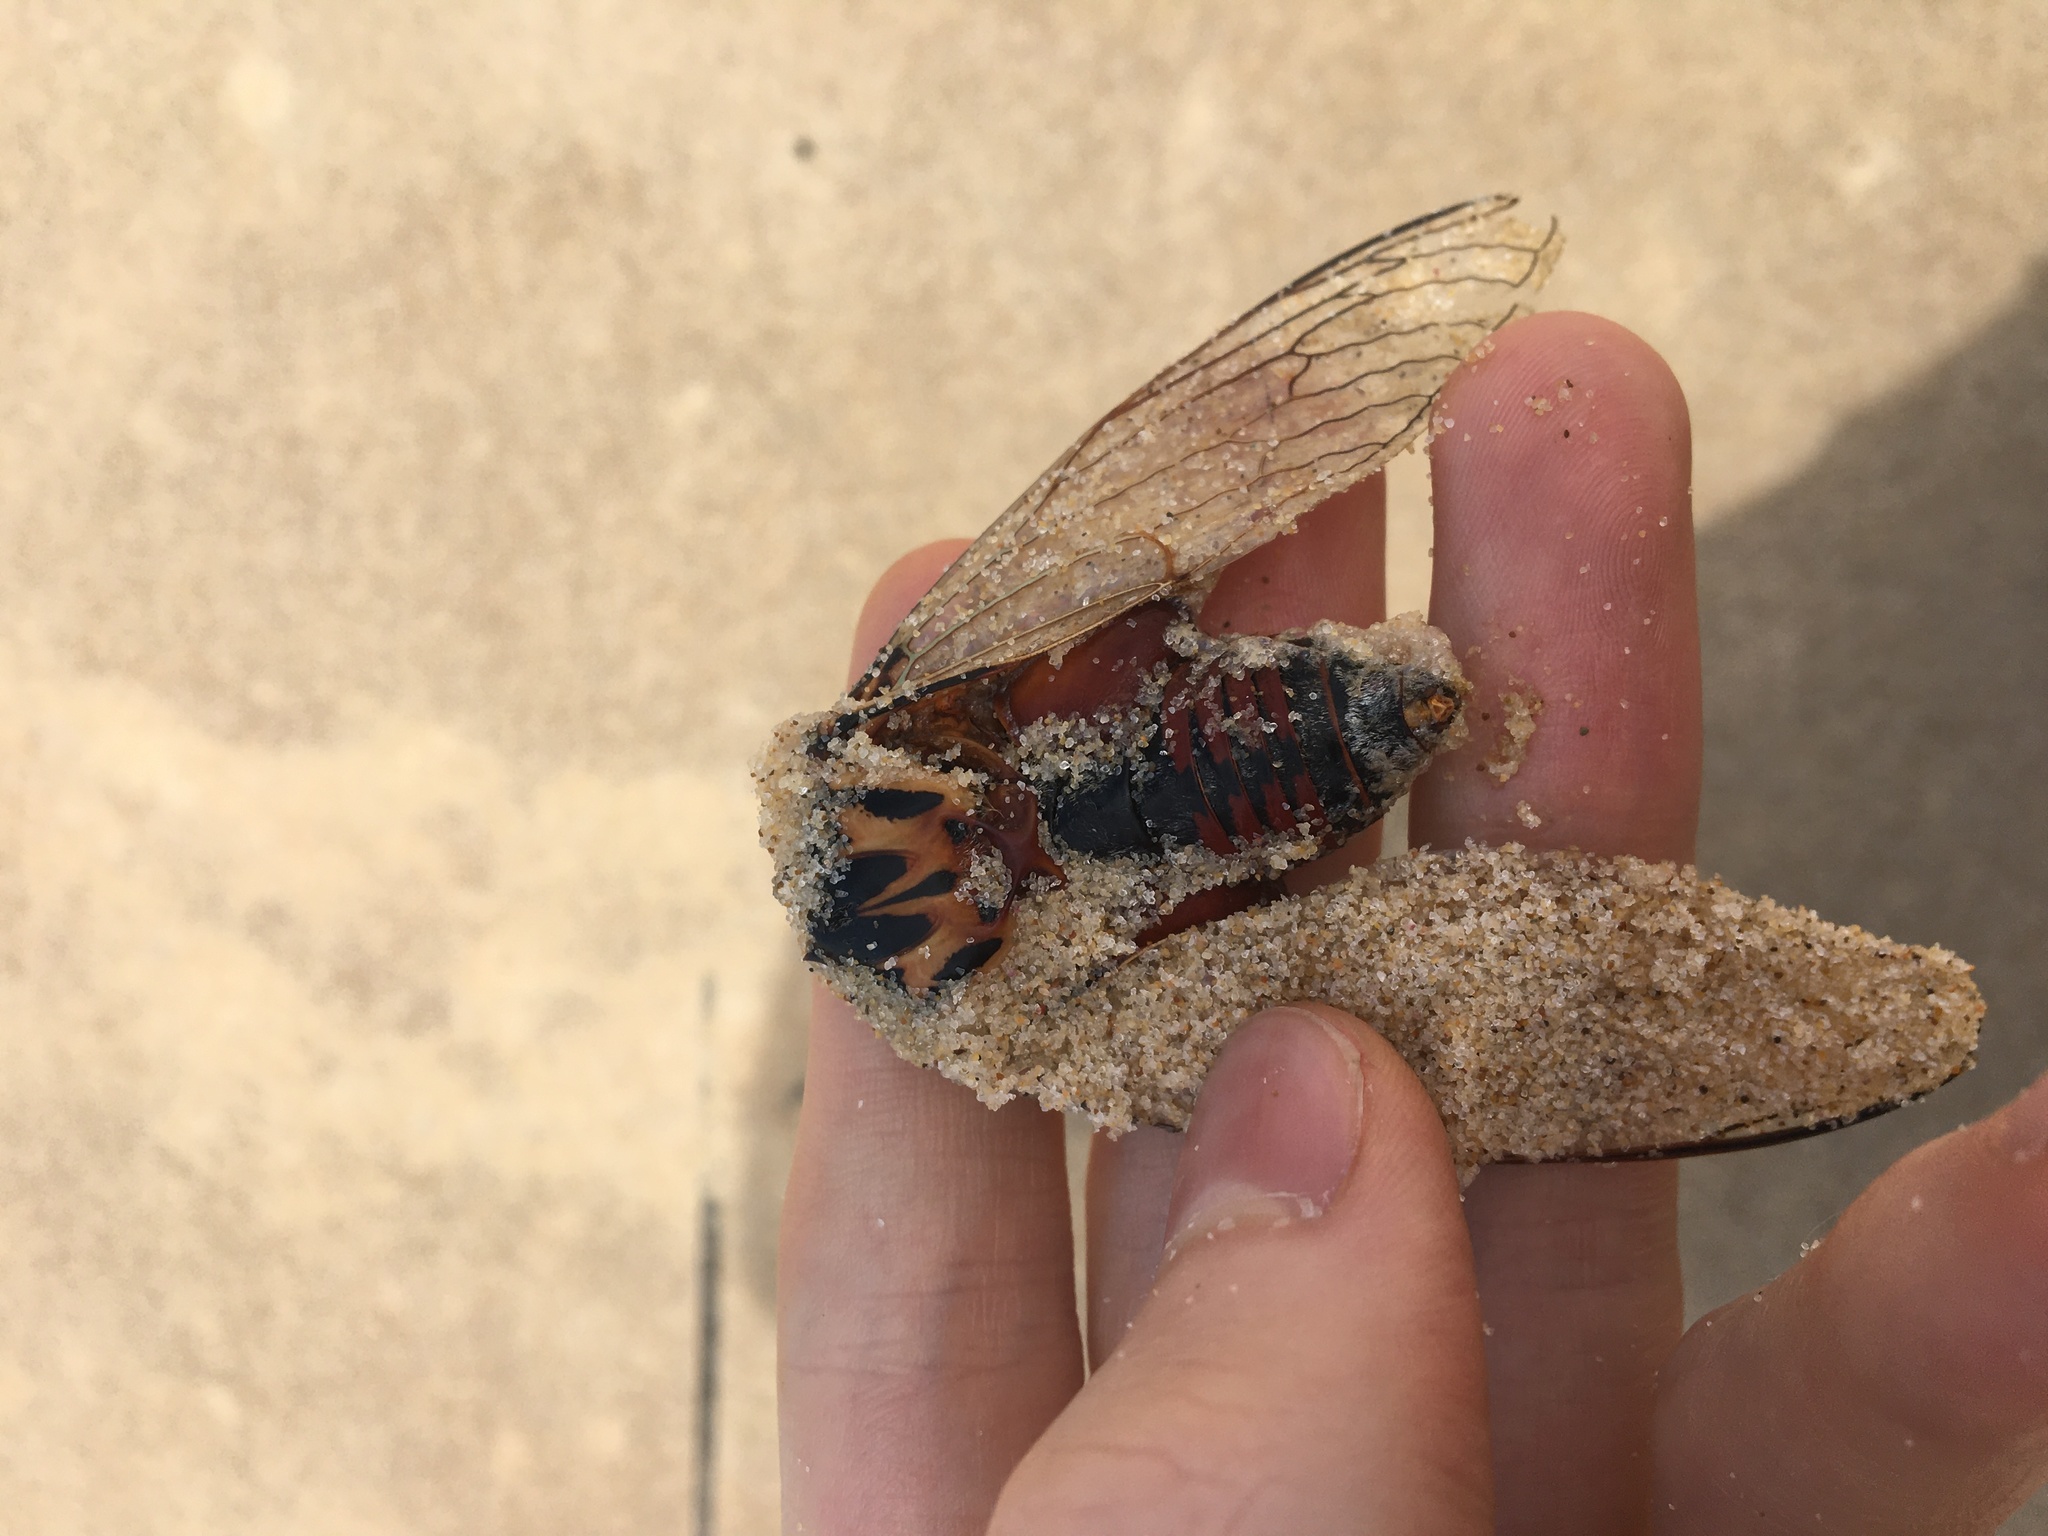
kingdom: Animalia
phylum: Arthropoda
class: Insecta
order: Hemiptera
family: Cicadidae
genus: Thopha
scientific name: Thopha saccata
